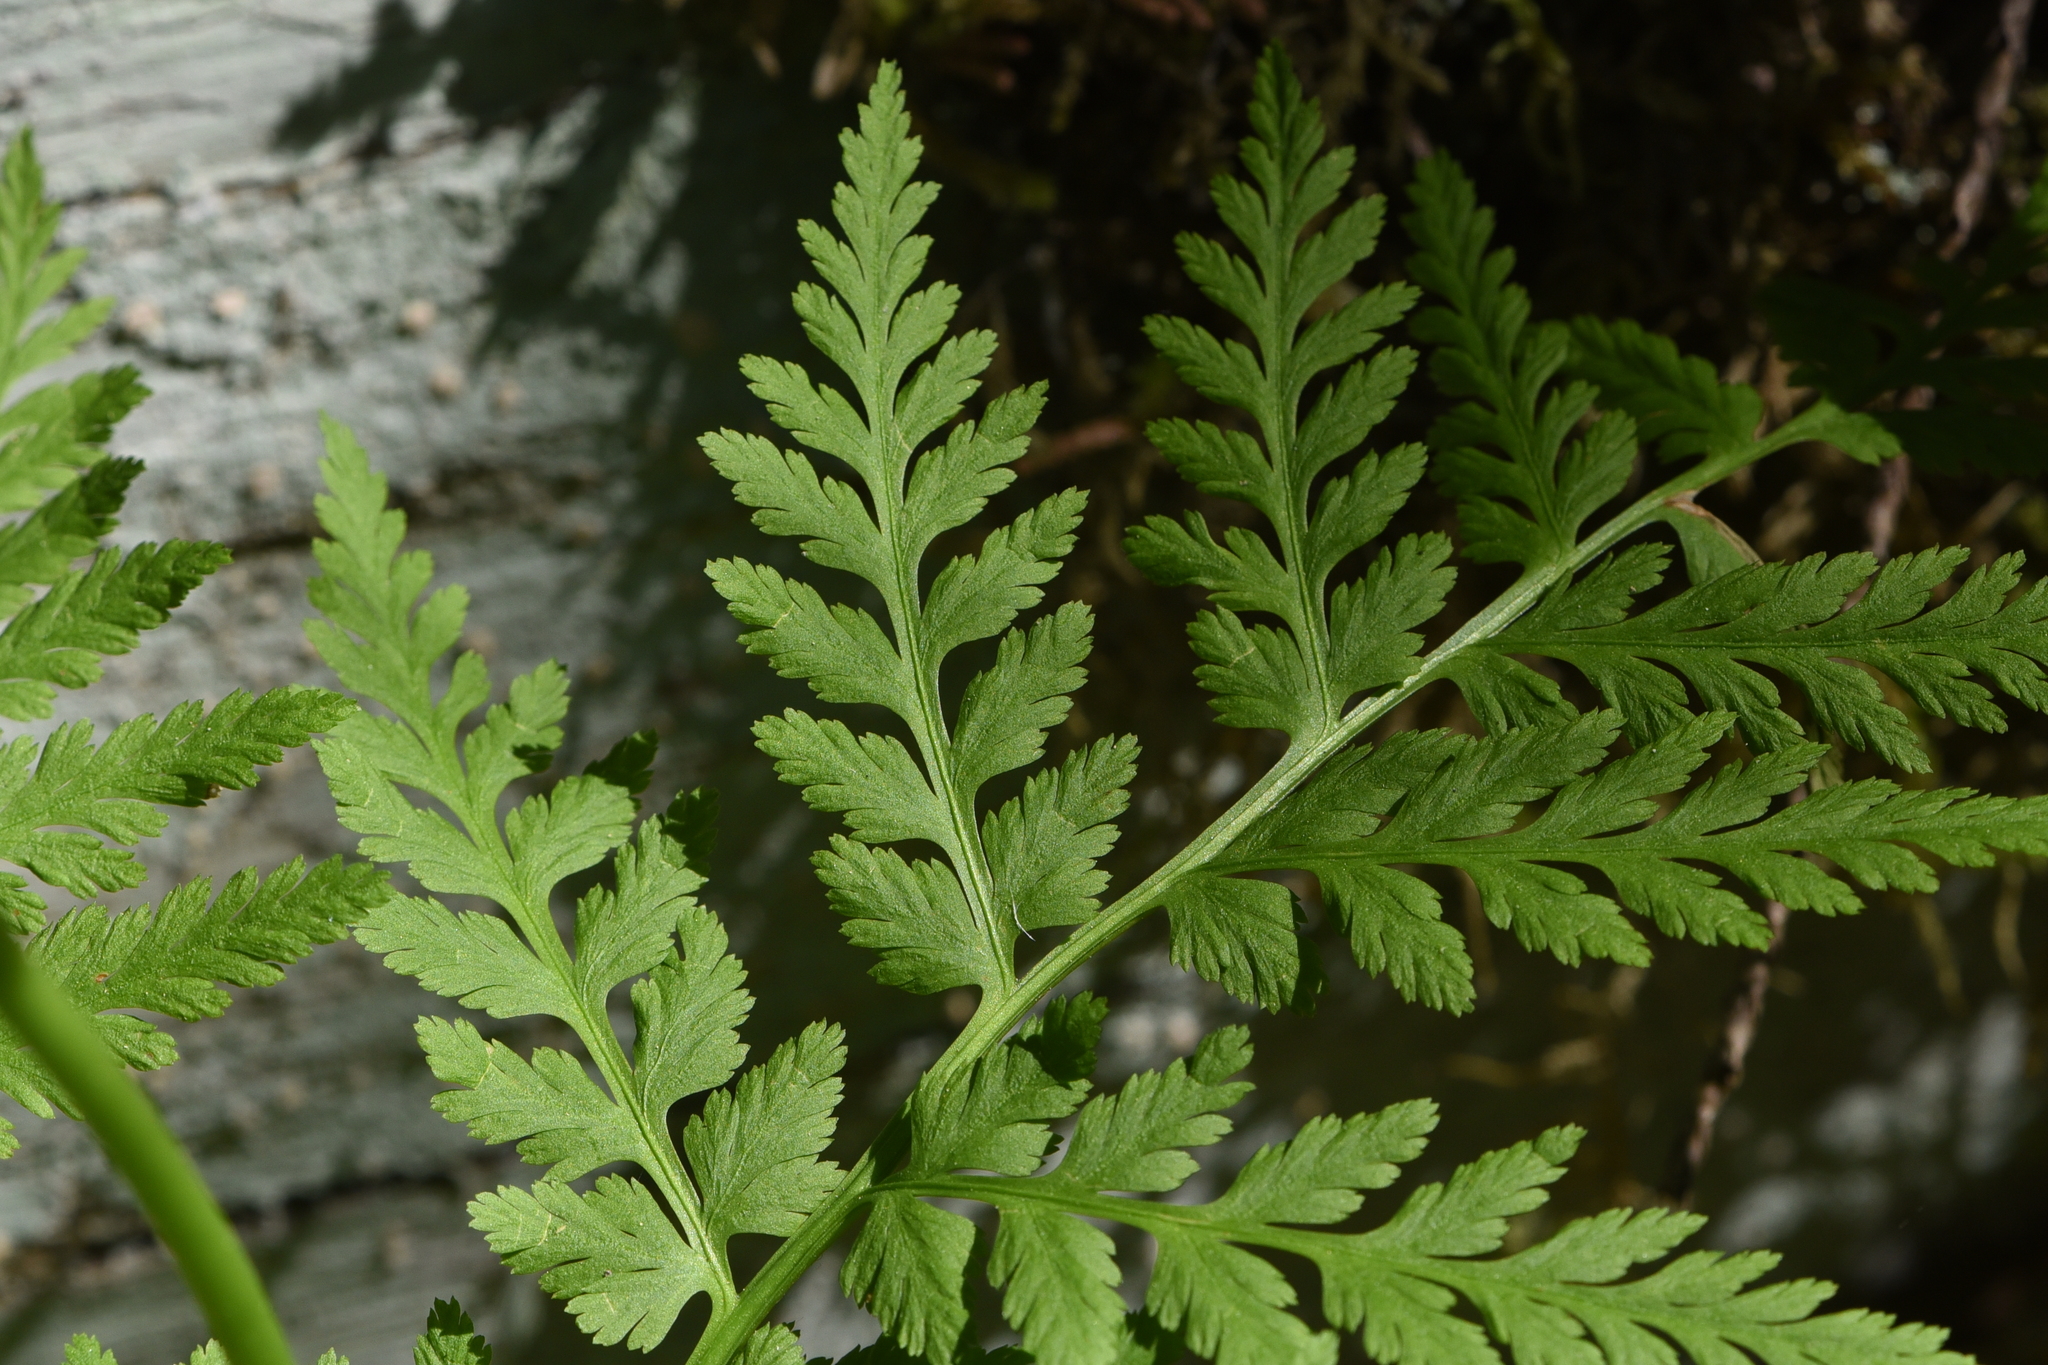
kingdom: Plantae
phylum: Tracheophyta
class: Polypodiopsida
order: Ophioglossales
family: Ophioglossaceae
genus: Botrypus
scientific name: Botrypus virginianus
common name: Common grapefern
